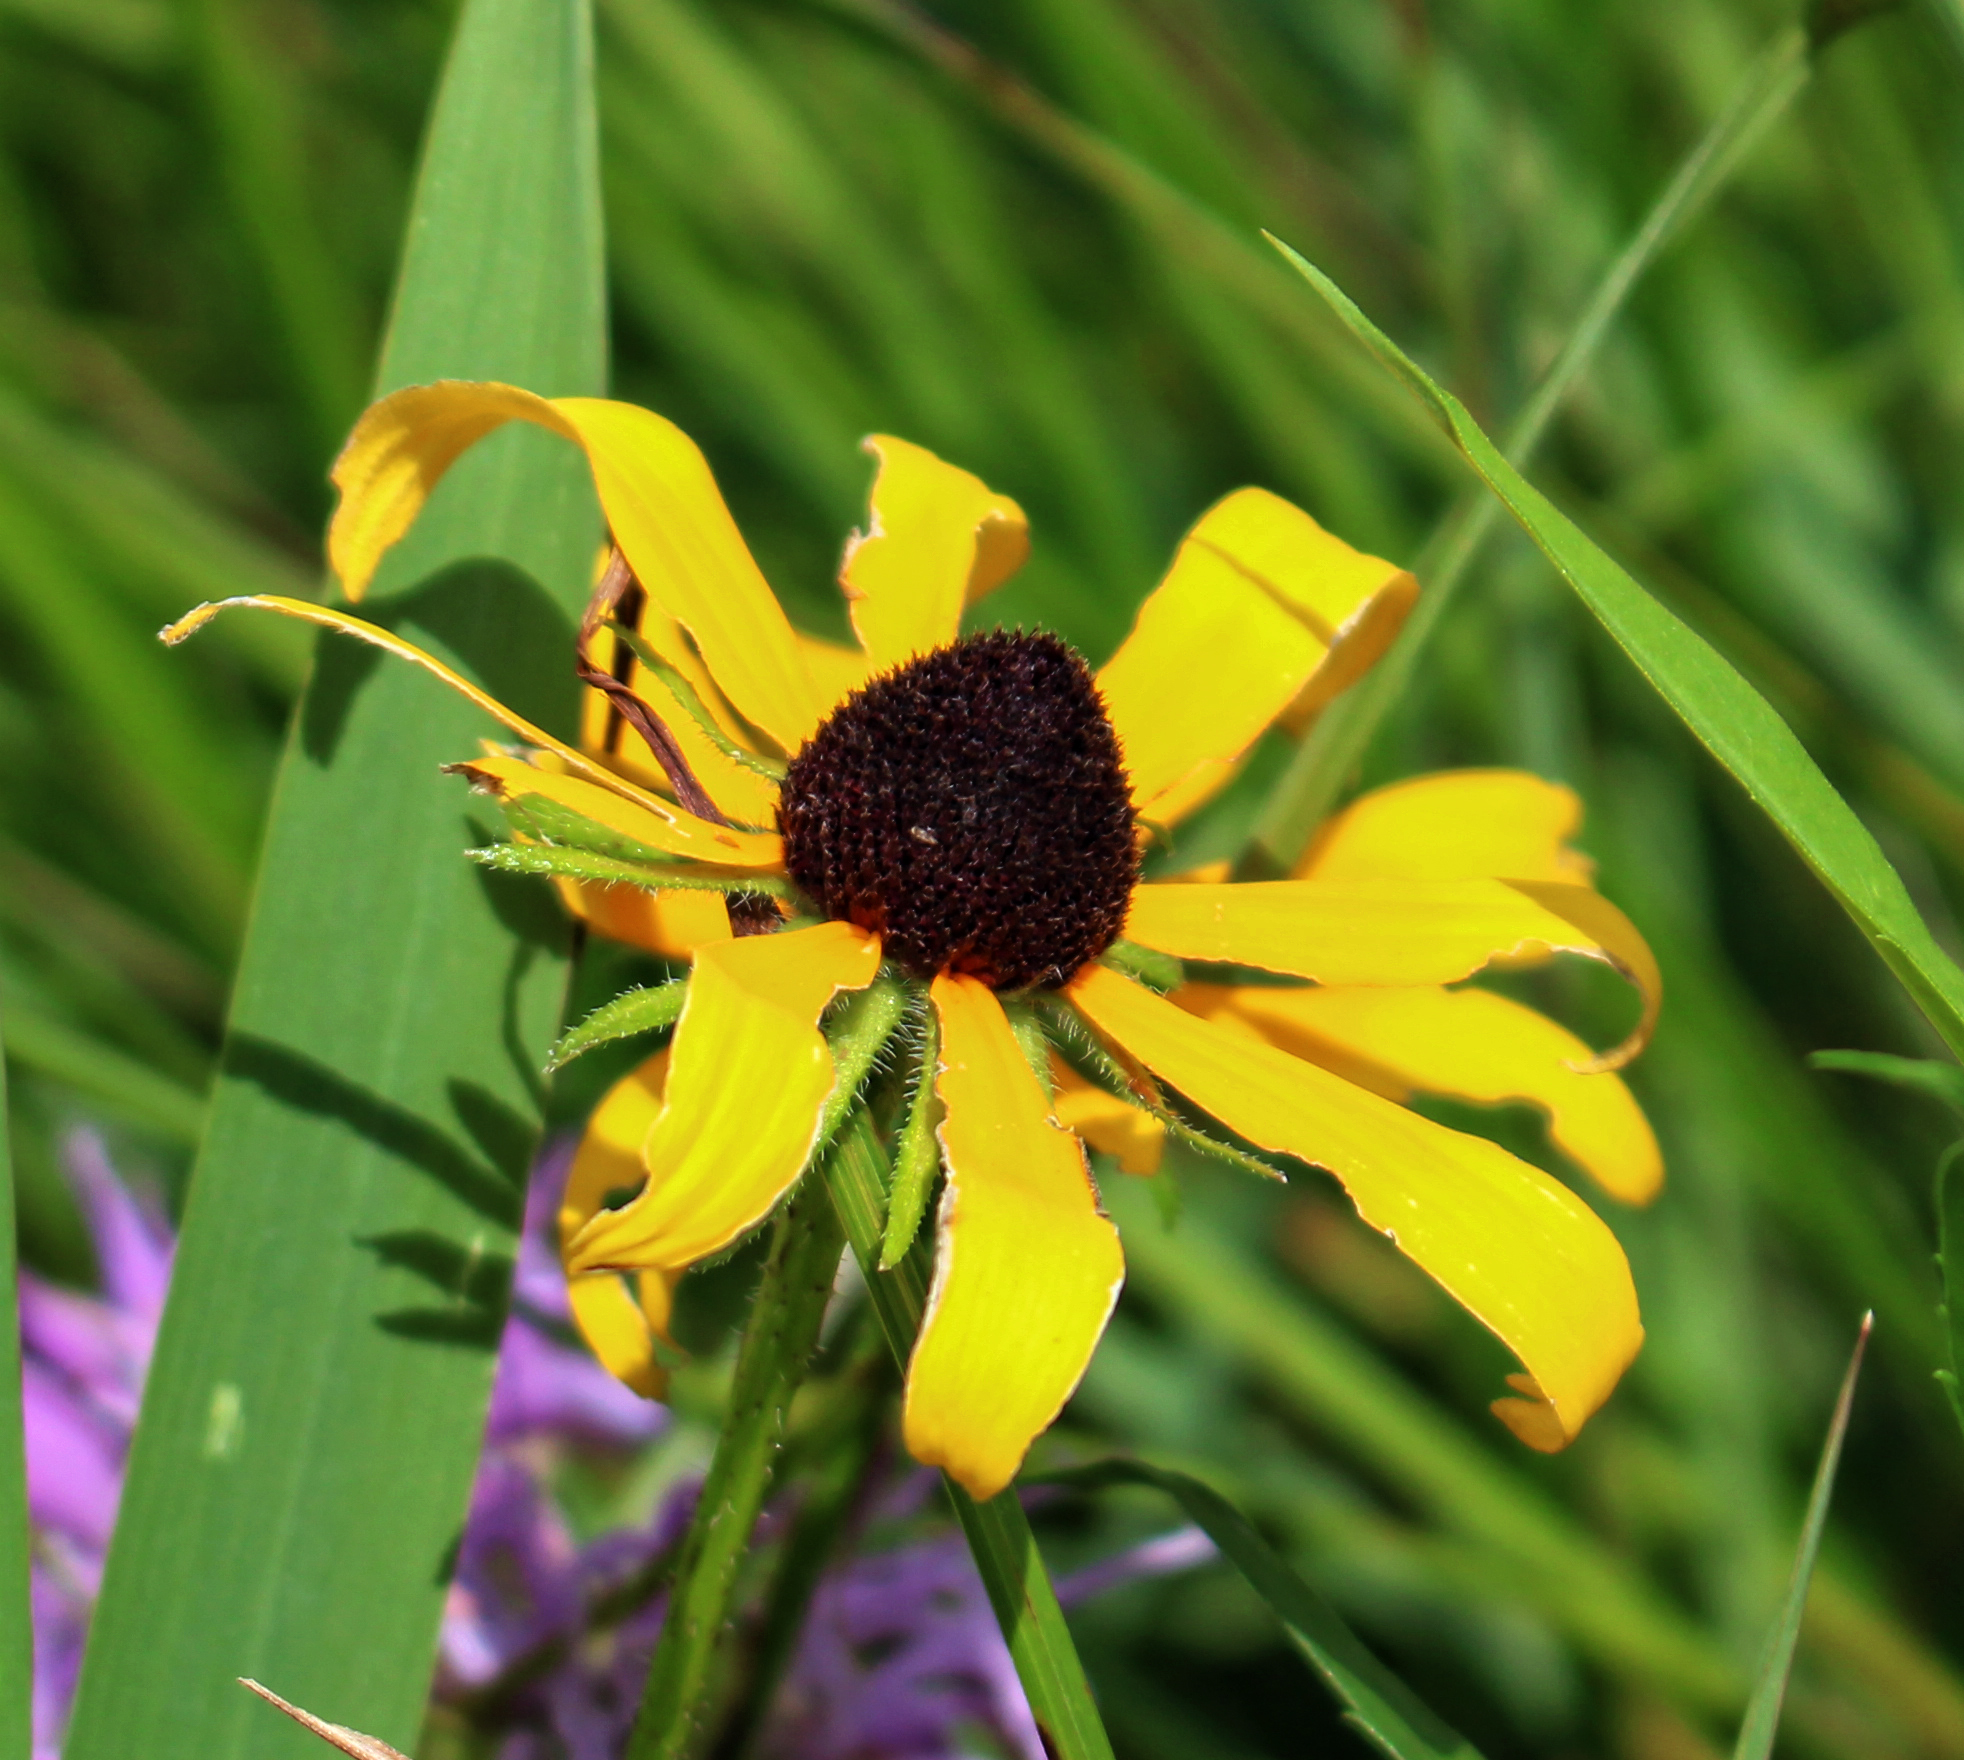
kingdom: Plantae
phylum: Tracheophyta
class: Magnoliopsida
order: Asterales
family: Asteraceae
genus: Rudbeckia
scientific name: Rudbeckia hirta
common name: Black-eyed-susan
